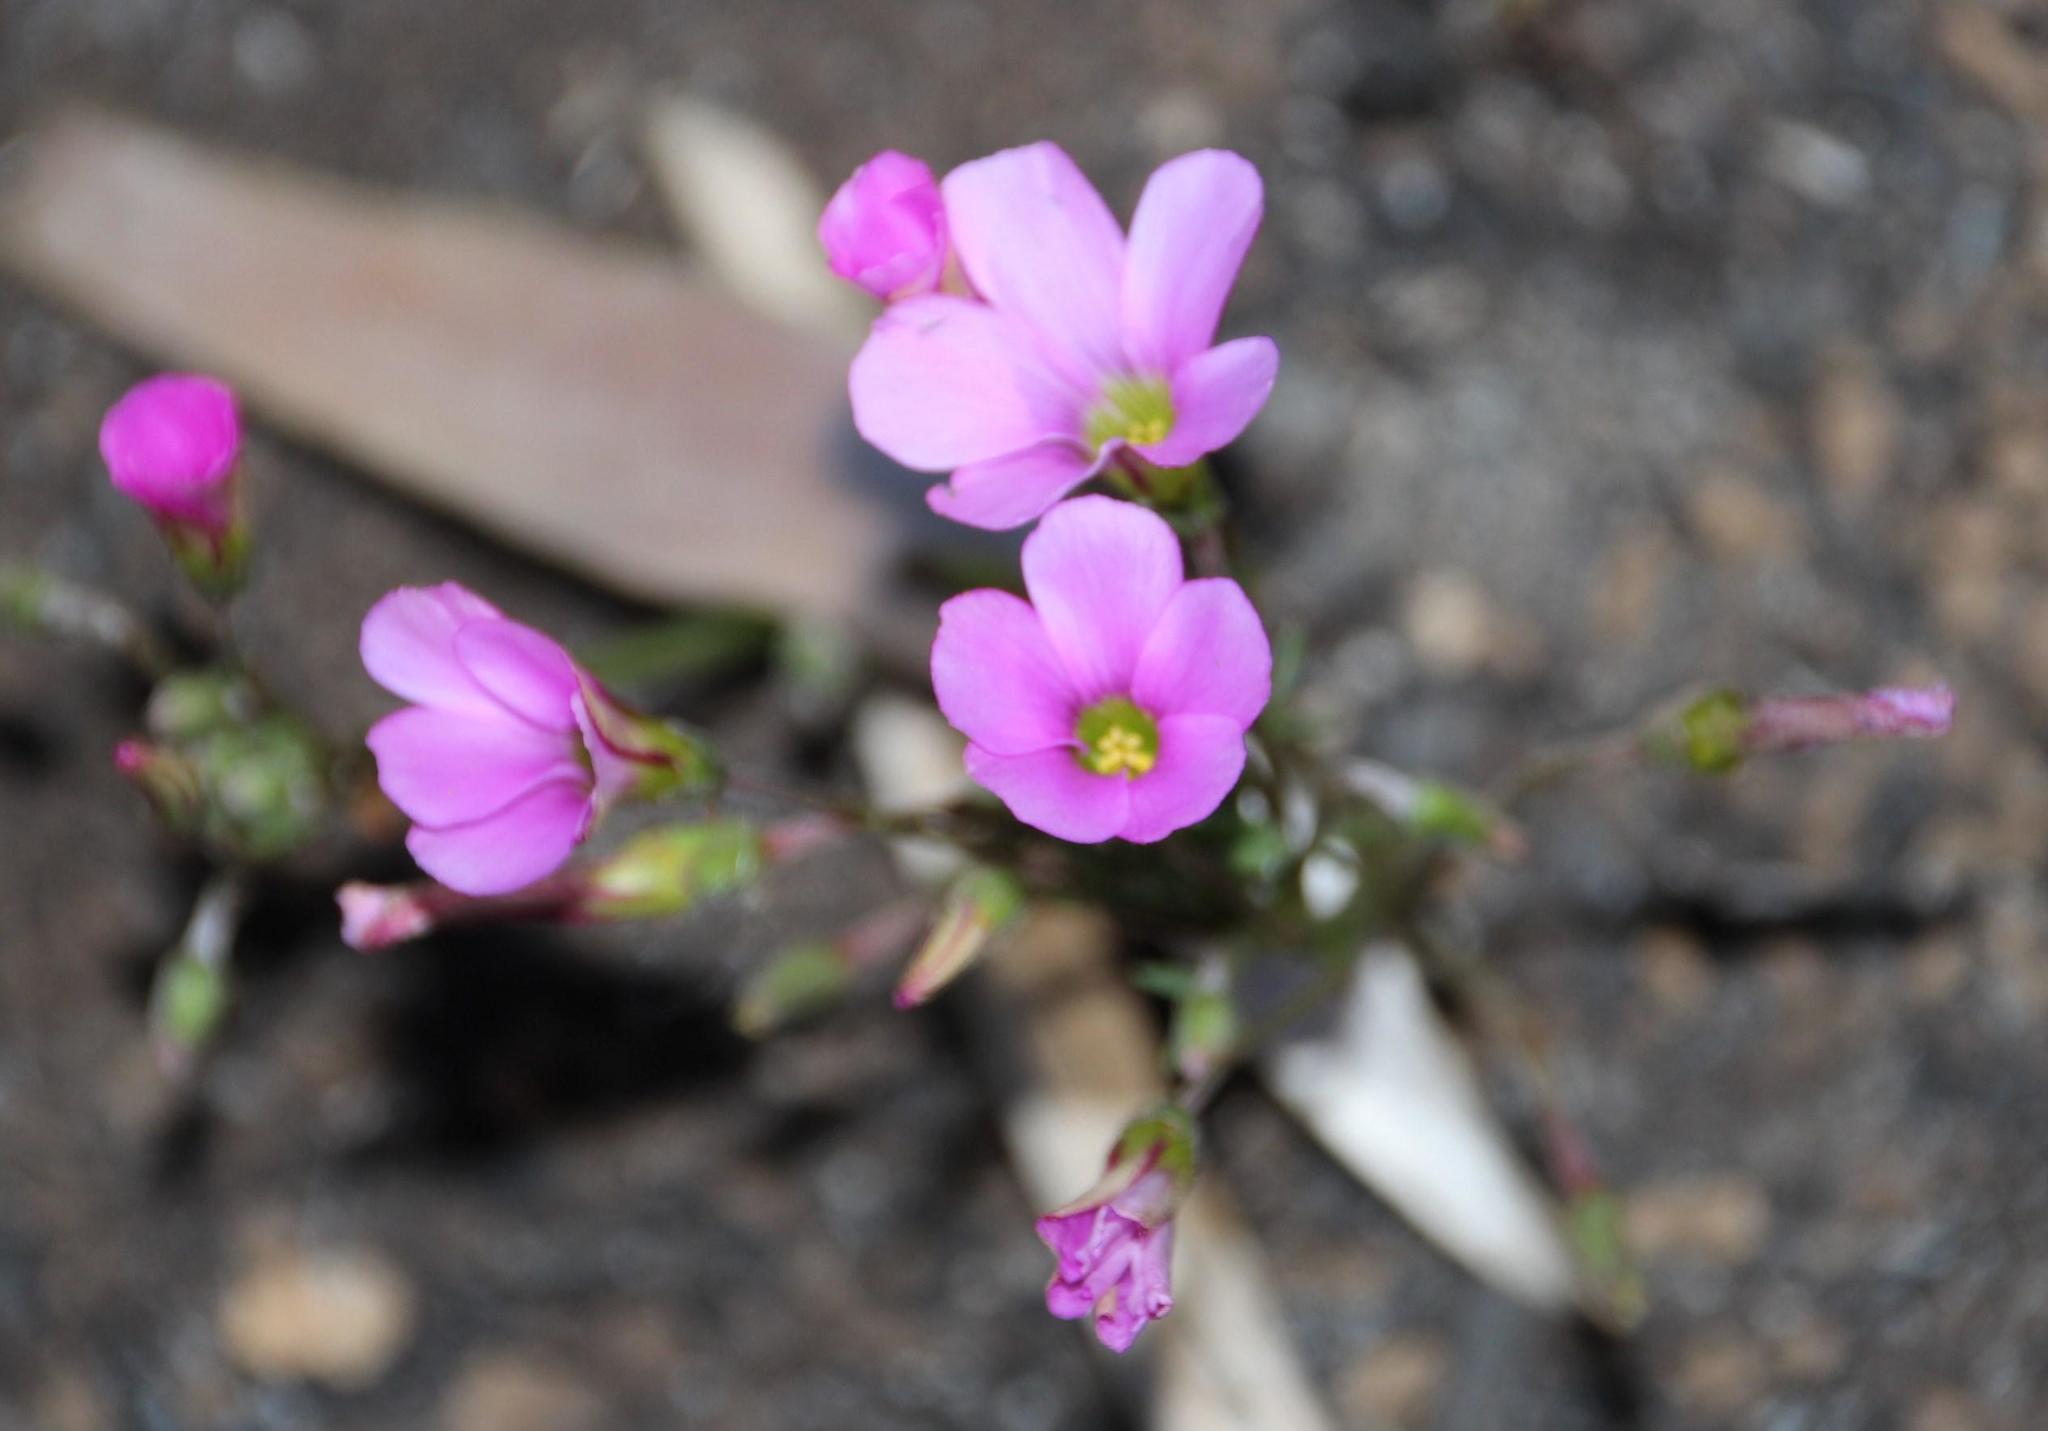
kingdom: Plantae
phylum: Tracheophyta
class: Magnoliopsida
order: Oxalidales
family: Oxalidaceae
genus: Oxalis
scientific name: Oxalis bifida
